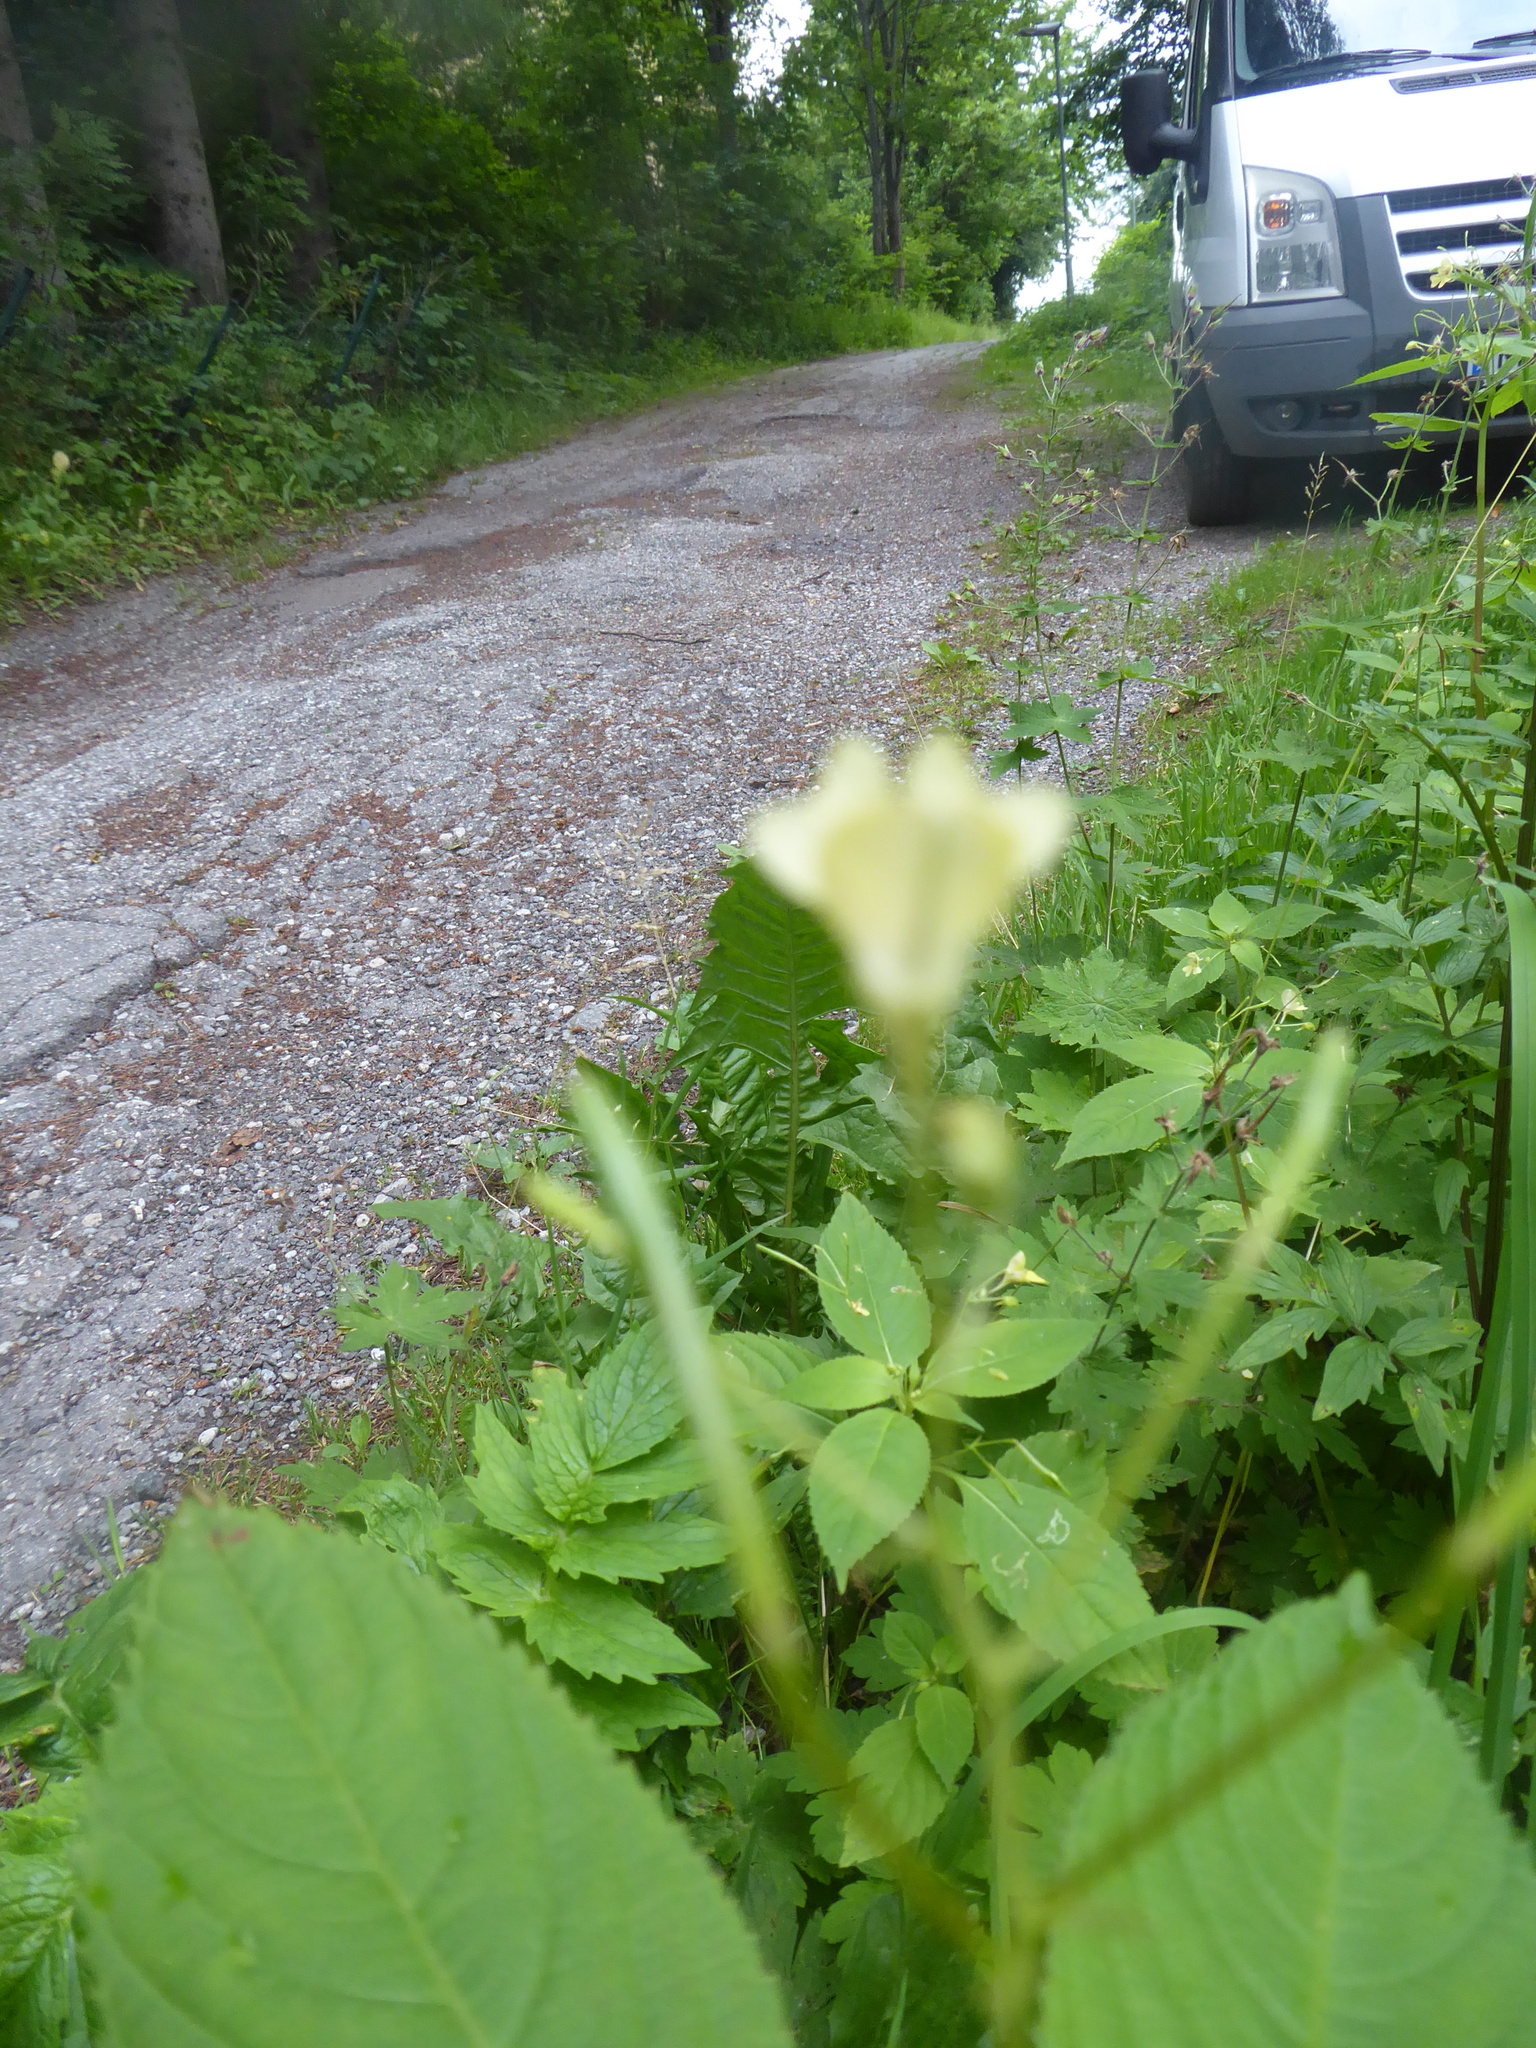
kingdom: Plantae
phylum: Tracheophyta
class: Magnoliopsida
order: Ericales
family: Balsaminaceae
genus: Impatiens
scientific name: Impatiens parviflora
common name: Small balsam
